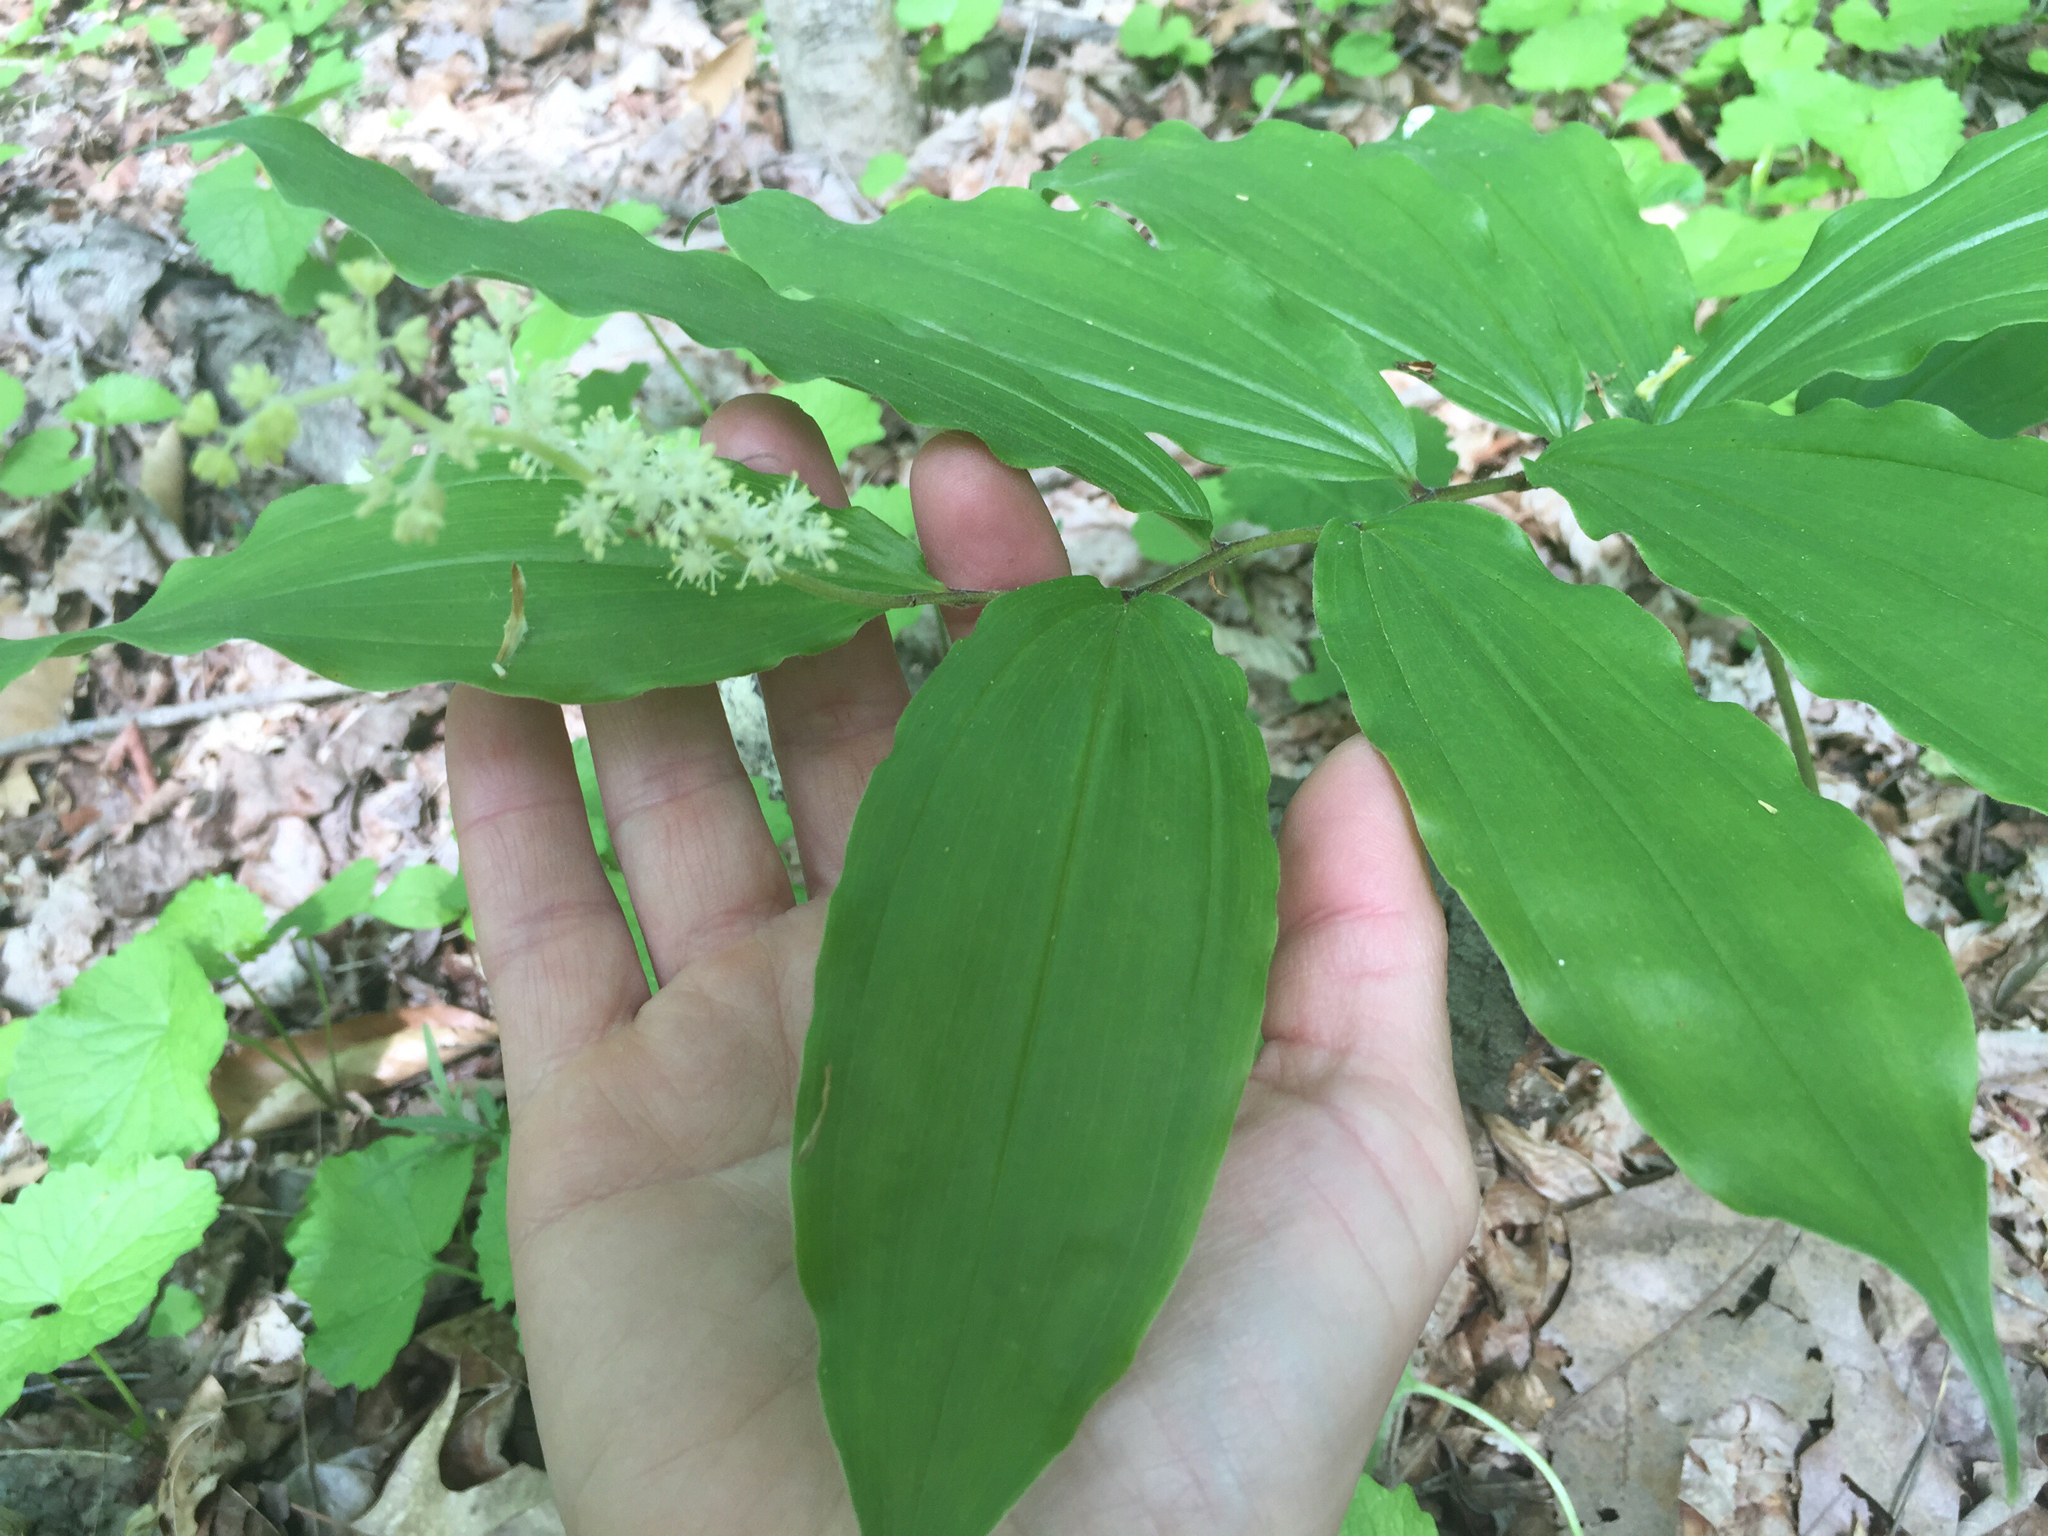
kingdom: Plantae
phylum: Tracheophyta
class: Liliopsida
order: Asparagales
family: Asparagaceae
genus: Maianthemum
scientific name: Maianthemum racemosum
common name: False spikenard
